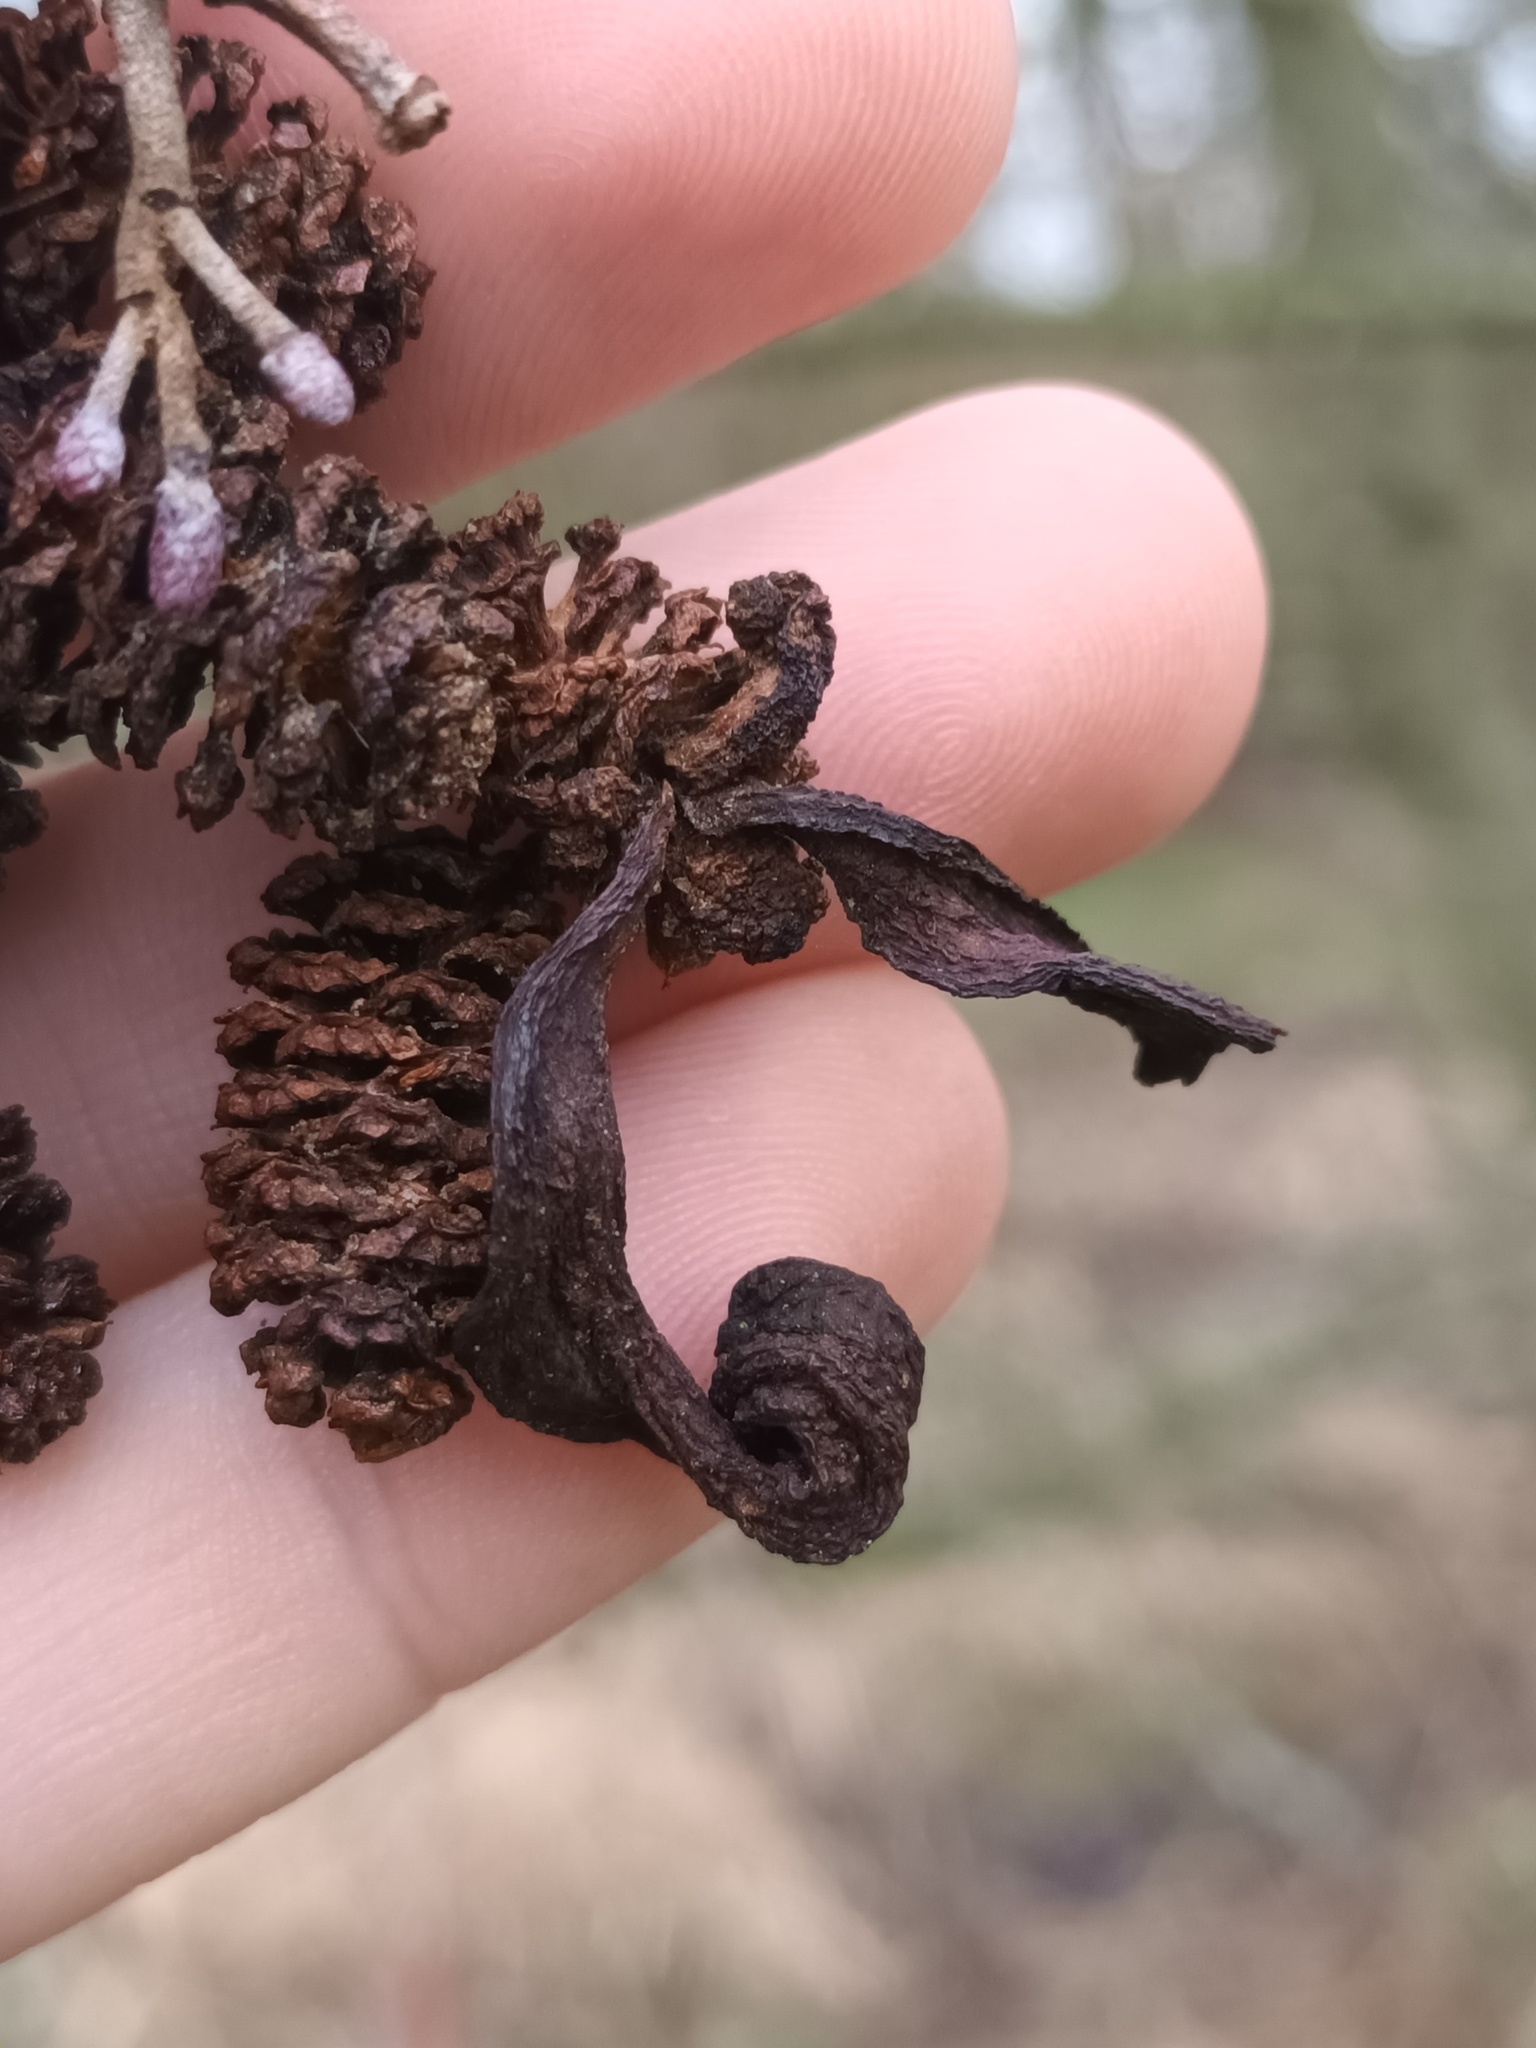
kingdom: Fungi
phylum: Ascomycota
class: Taphrinomycetes
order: Taphrinales
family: Taphrinaceae
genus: Taphrina
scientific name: Taphrina alni
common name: Alder tongue
